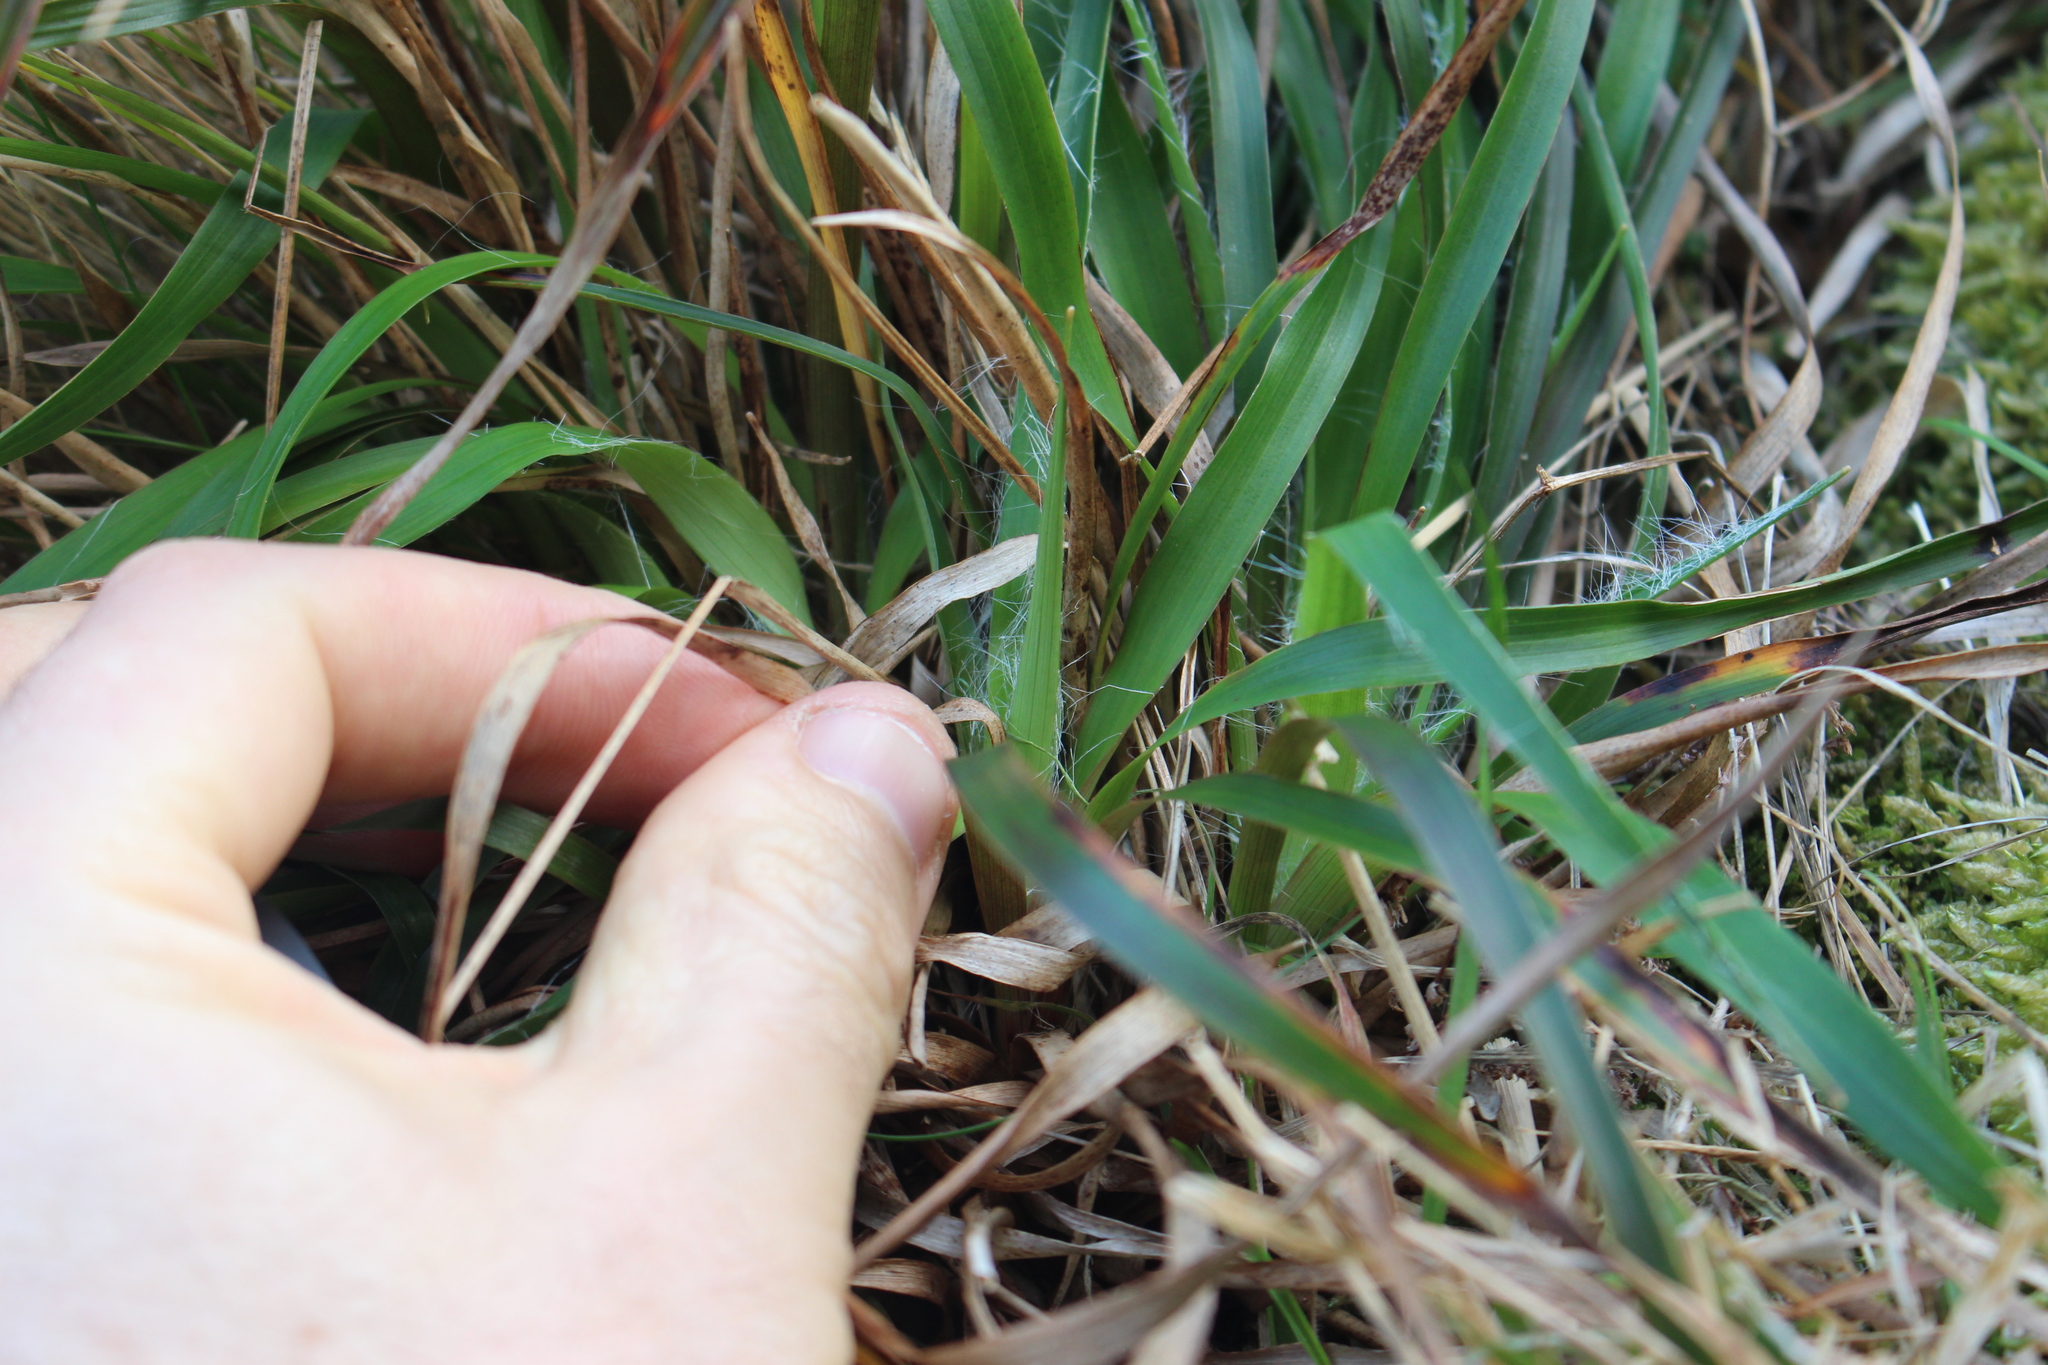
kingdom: Plantae
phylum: Tracheophyta
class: Liliopsida
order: Poales
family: Juncaceae
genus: Luzula
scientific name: Luzula banksiana
